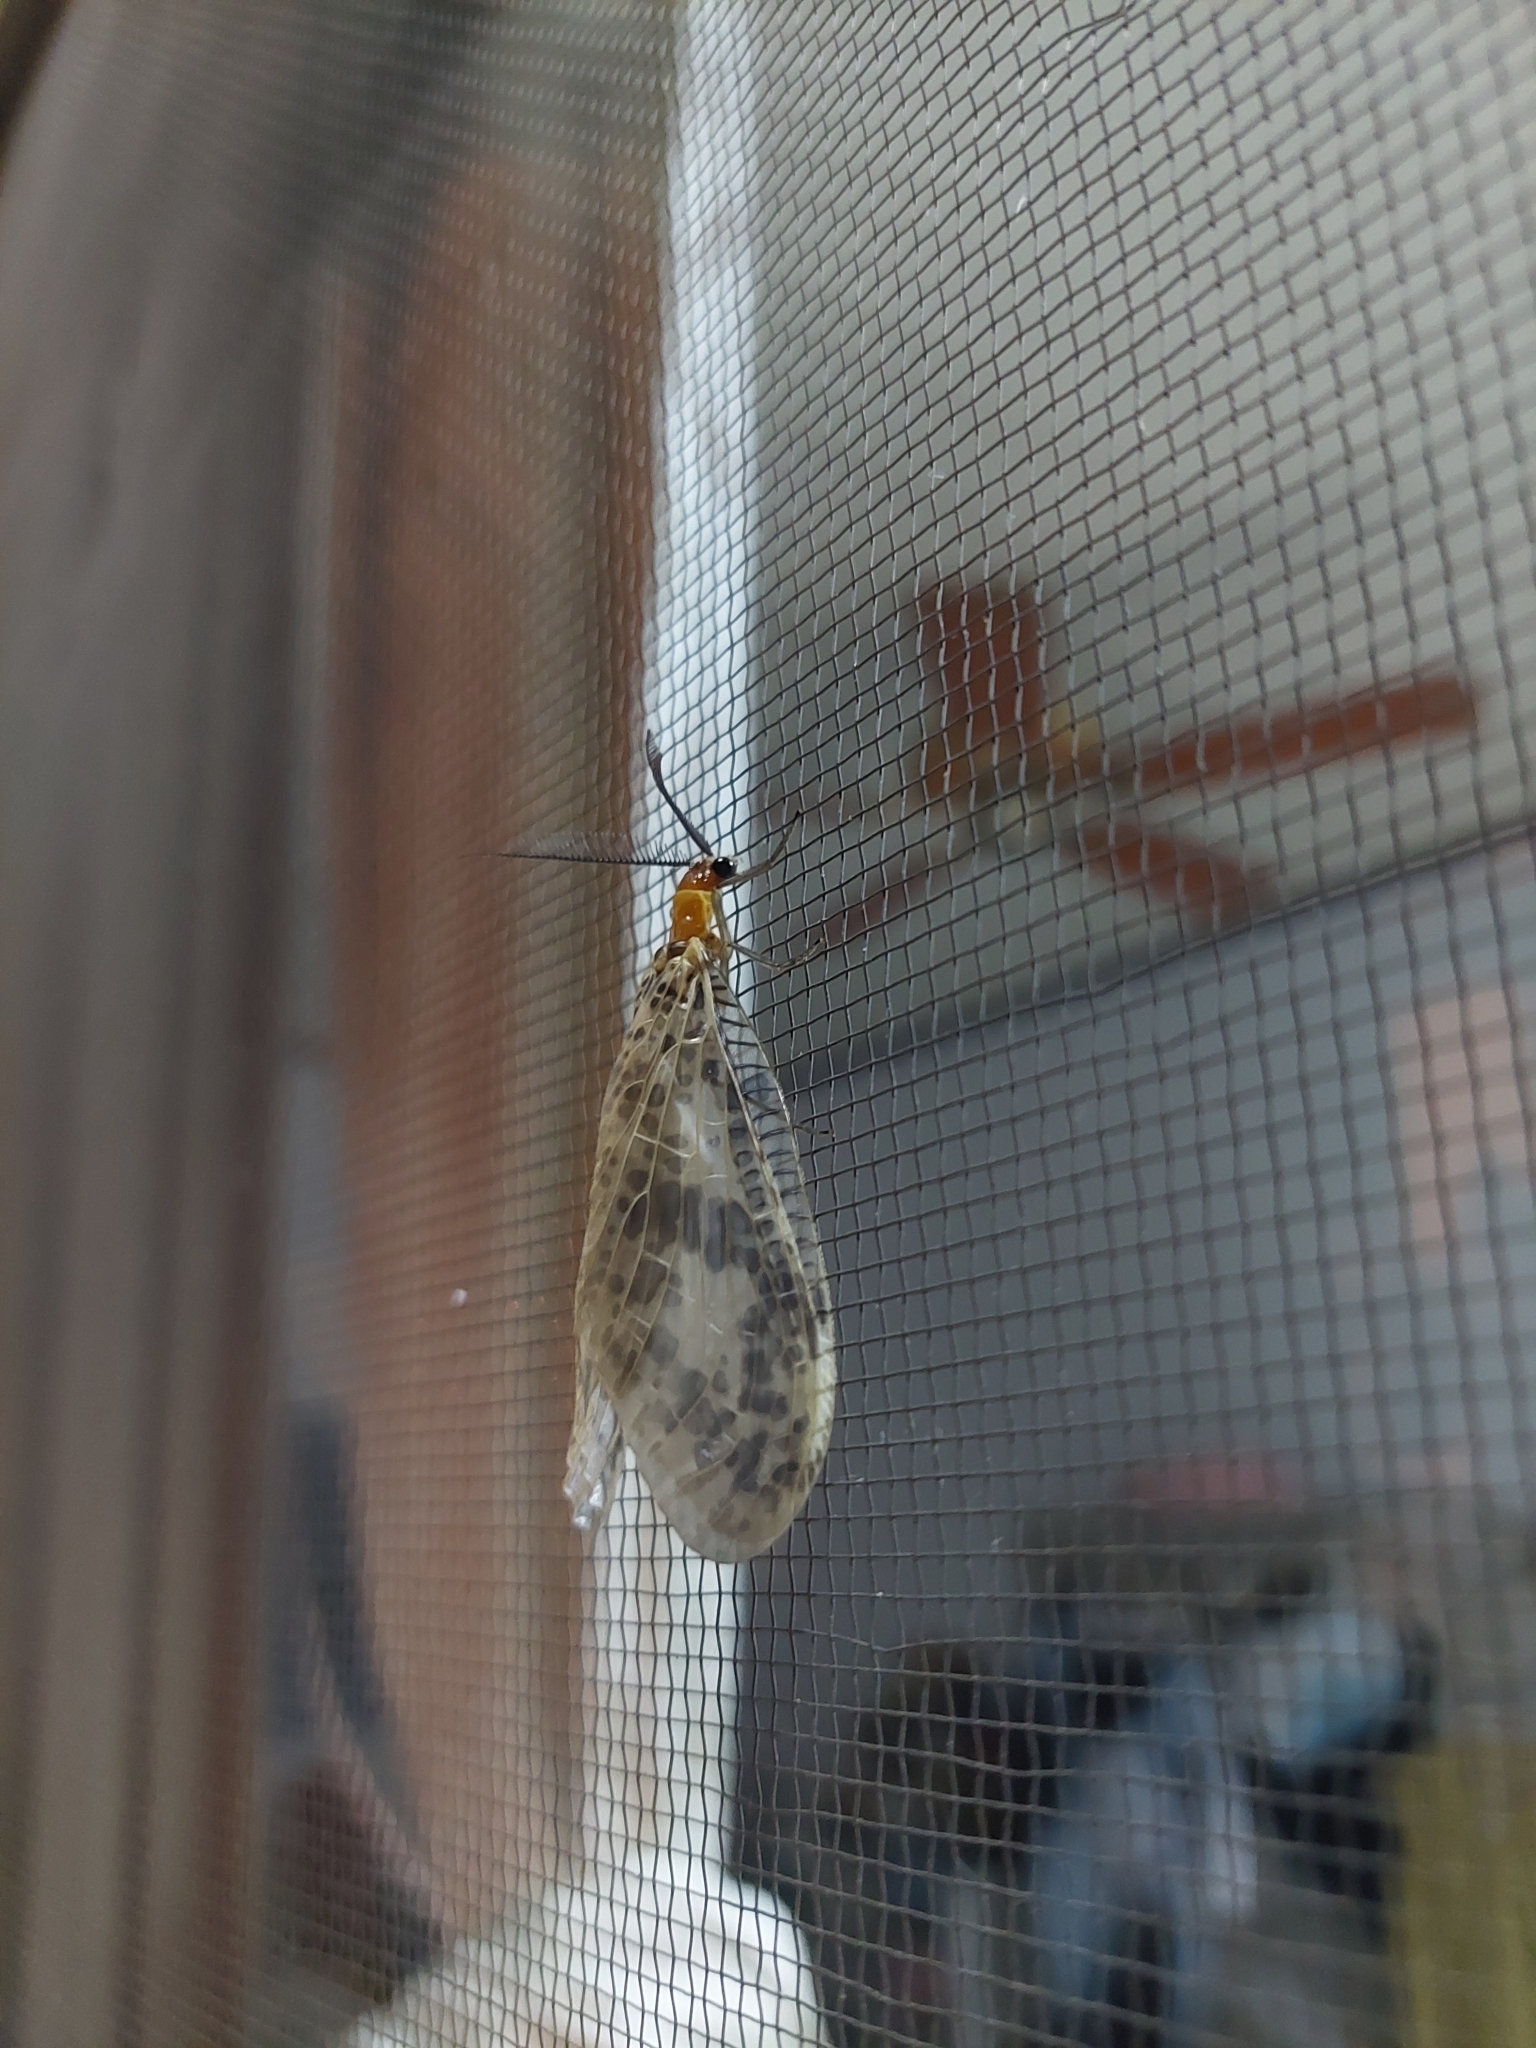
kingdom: Animalia
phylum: Arthropoda
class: Insecta
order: Megaloptera
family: Corydalidae
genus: Neochauliodes
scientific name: Neochauliodes formosanus
